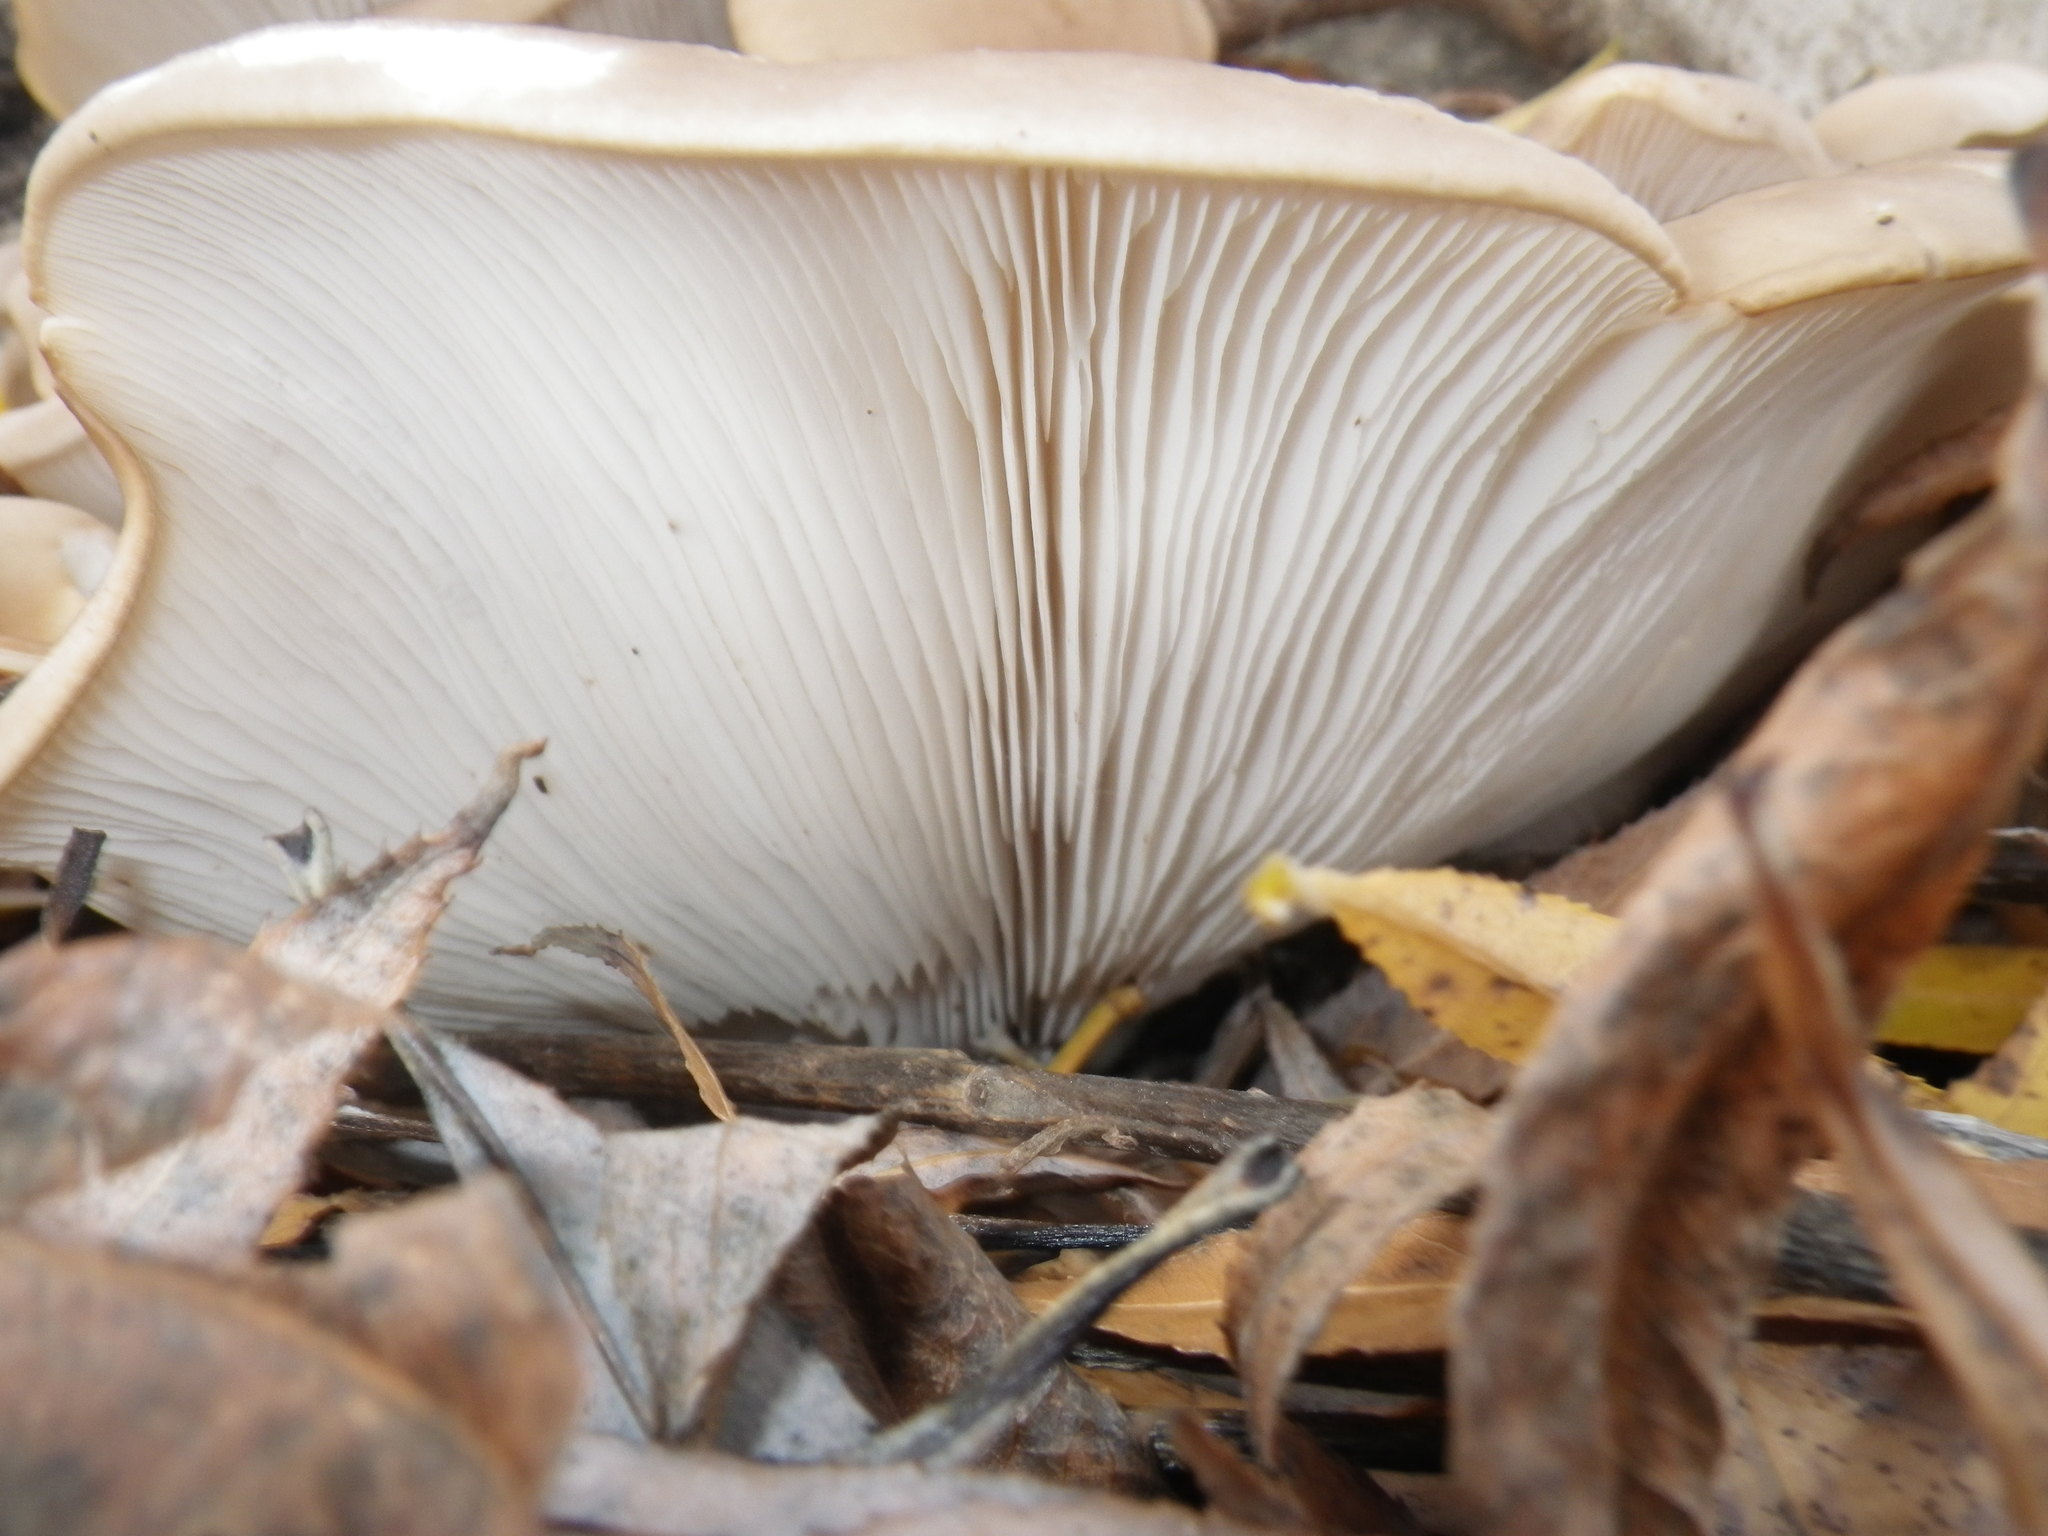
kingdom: Fungi
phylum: Basidiomycota
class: Agaricomycetes
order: Agaricales
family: Pleurotaceae
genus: Pleurotus
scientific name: Pleurotus ostreatus
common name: Oyster mushroom
